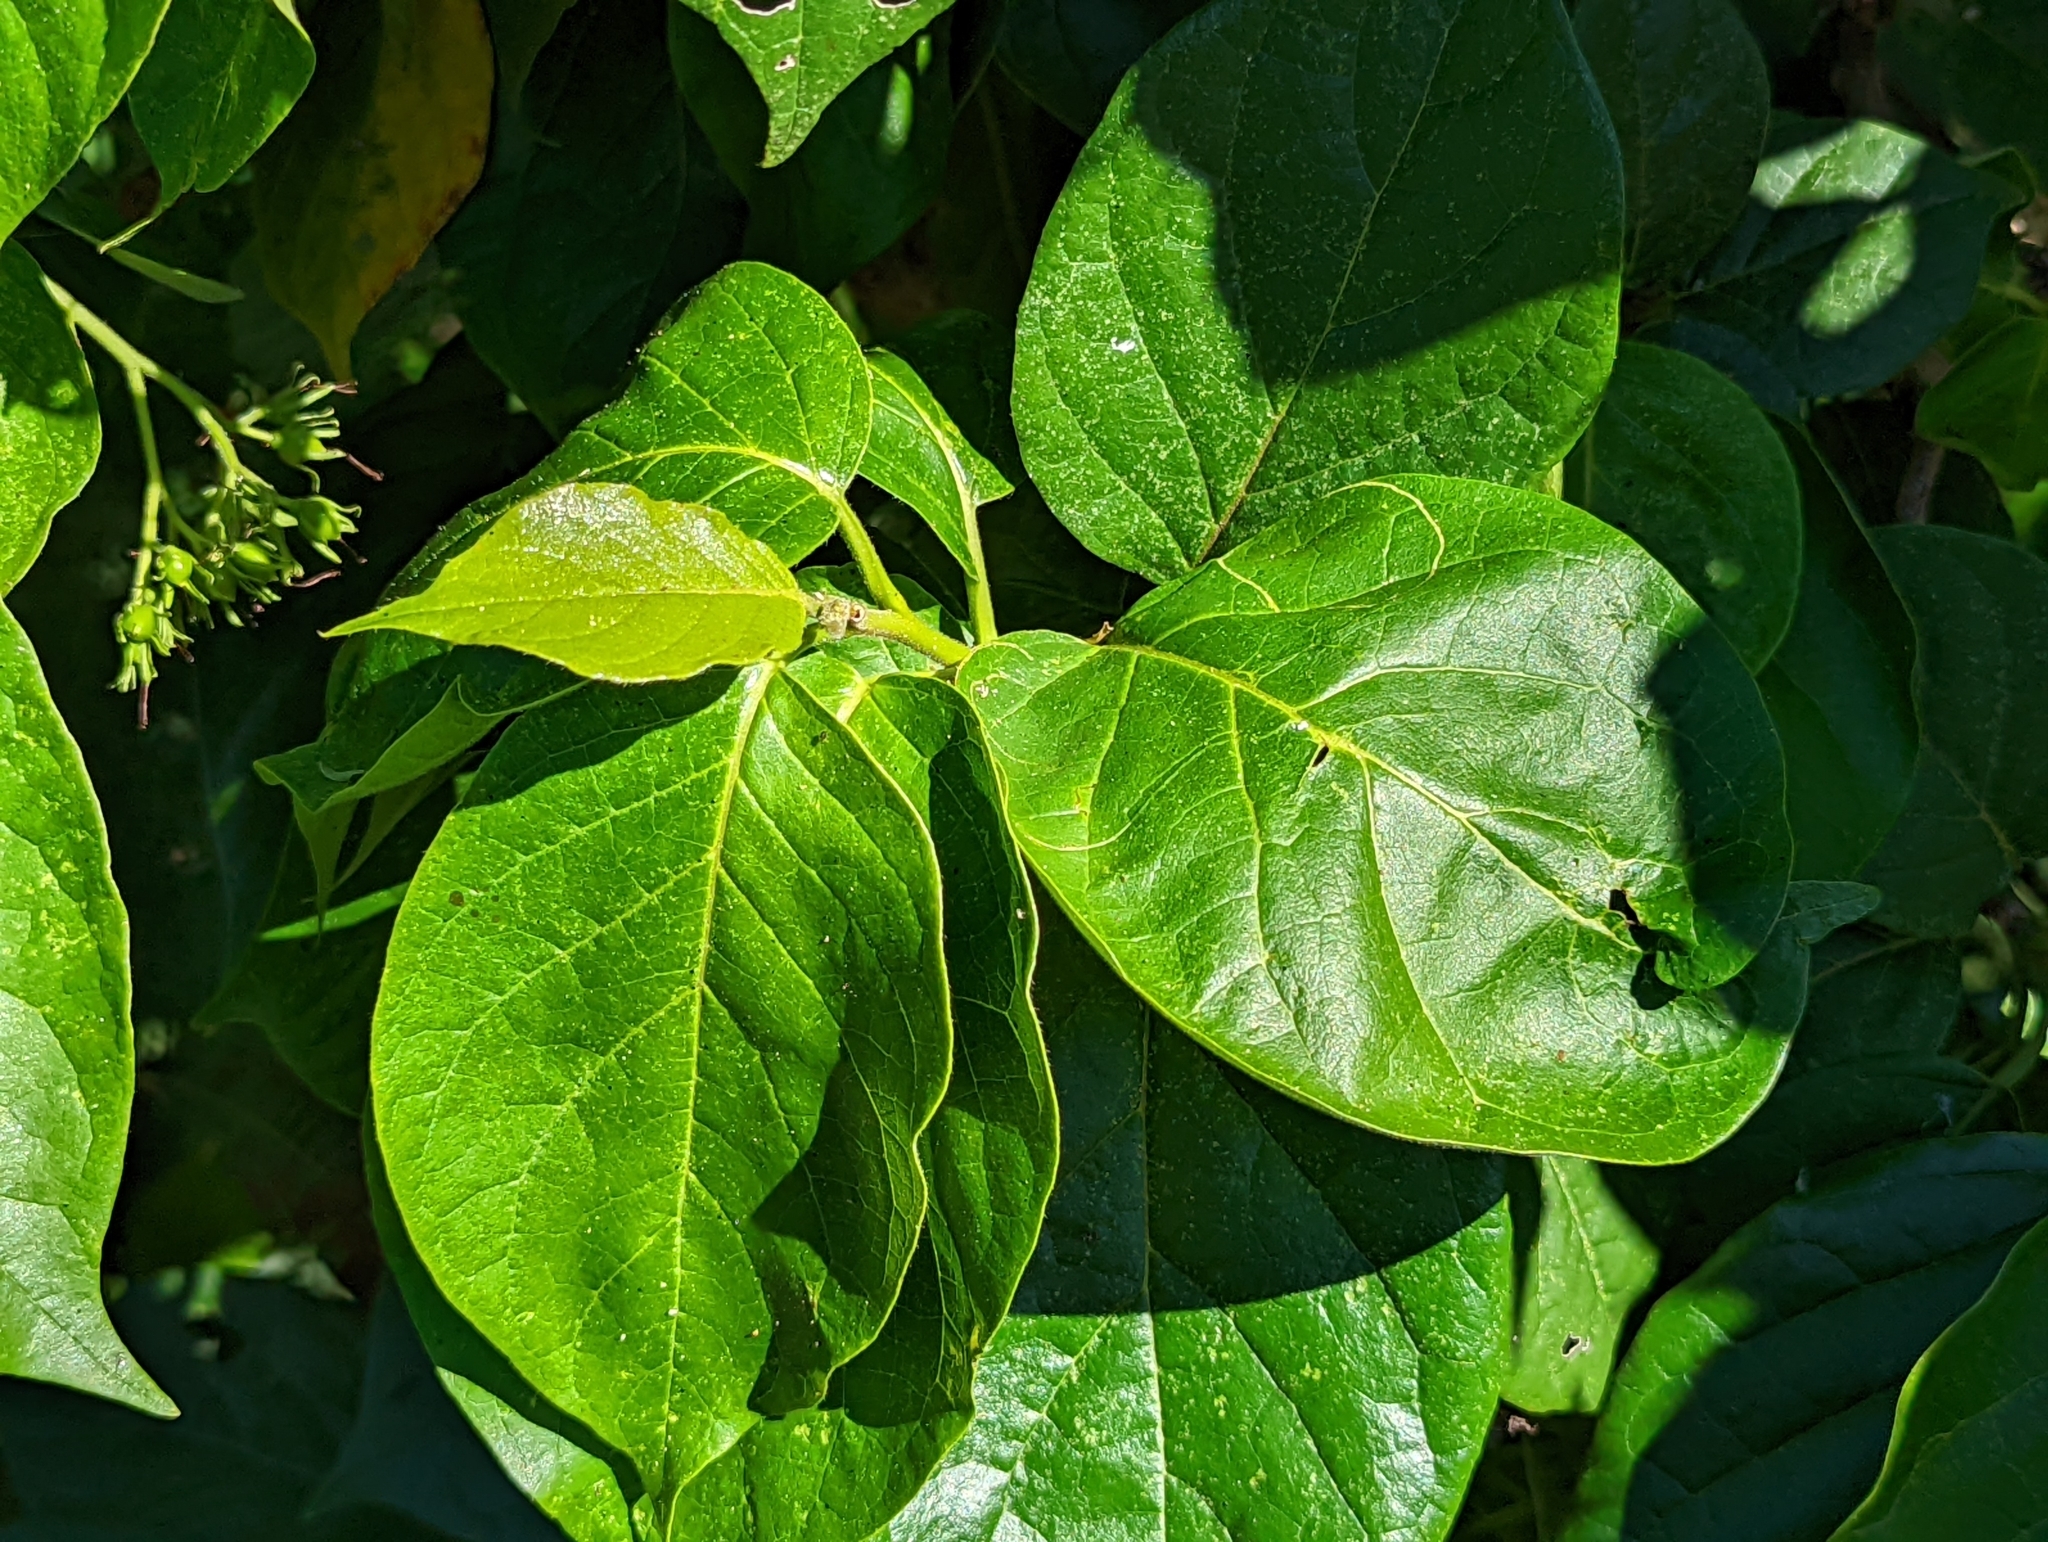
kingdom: Plantae
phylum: Tracheophyta
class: Magnoliopsida
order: Boraginales
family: Ehretiaceae
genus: Ehretia
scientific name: Ehretia resinosa
